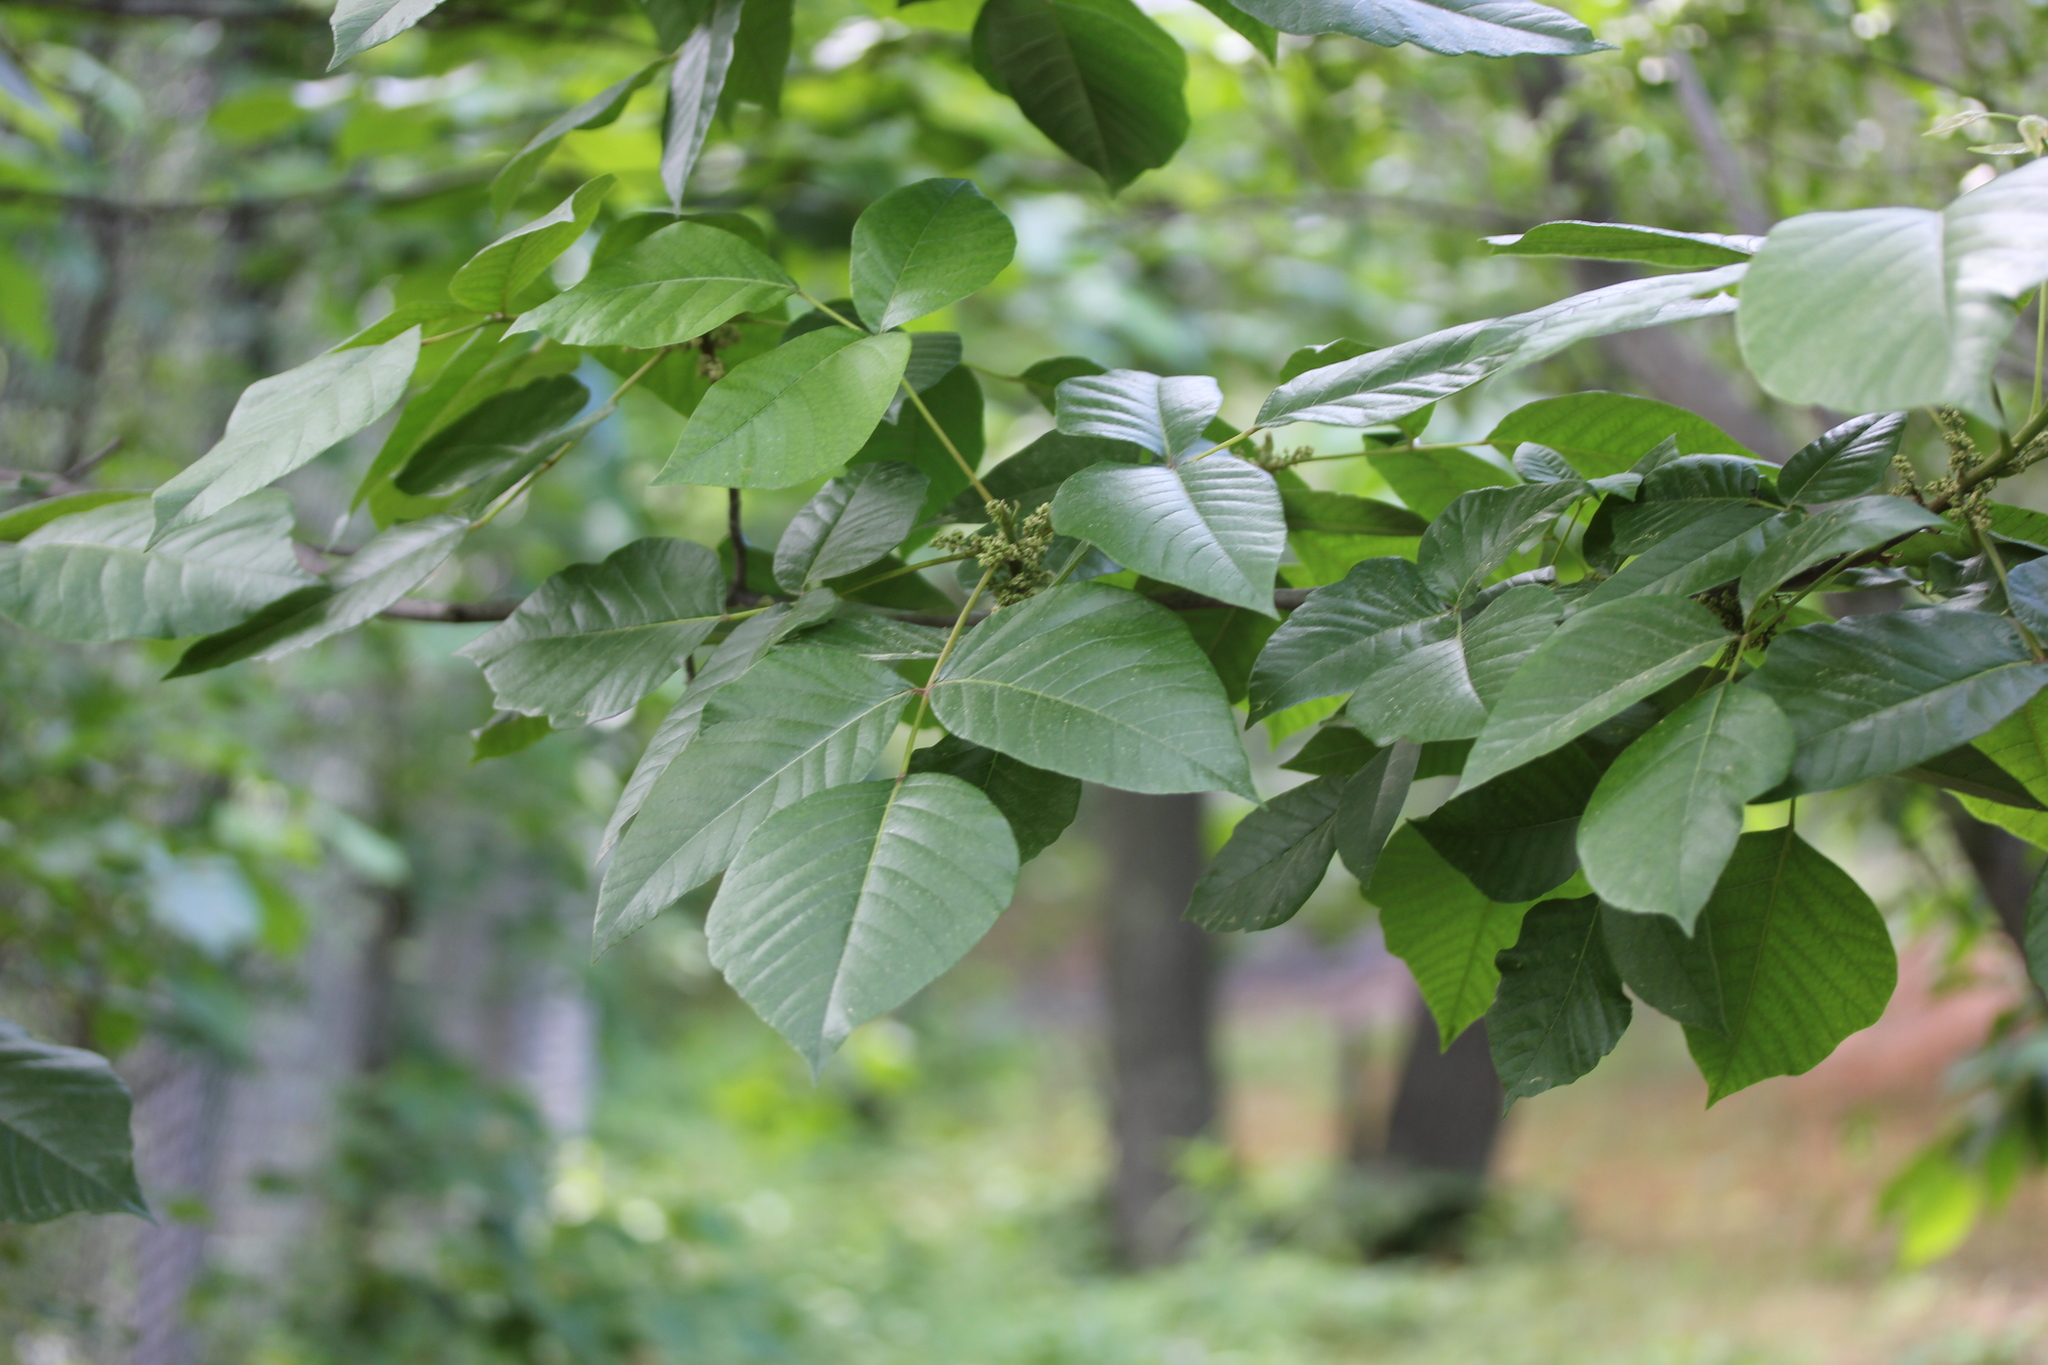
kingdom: Plantae
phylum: Tracheophyta
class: Magnoliopsida
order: Sapindales
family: Anacardiaceae
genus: Toxicodendron
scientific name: Toxicodendron radicans
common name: Poison ivy
